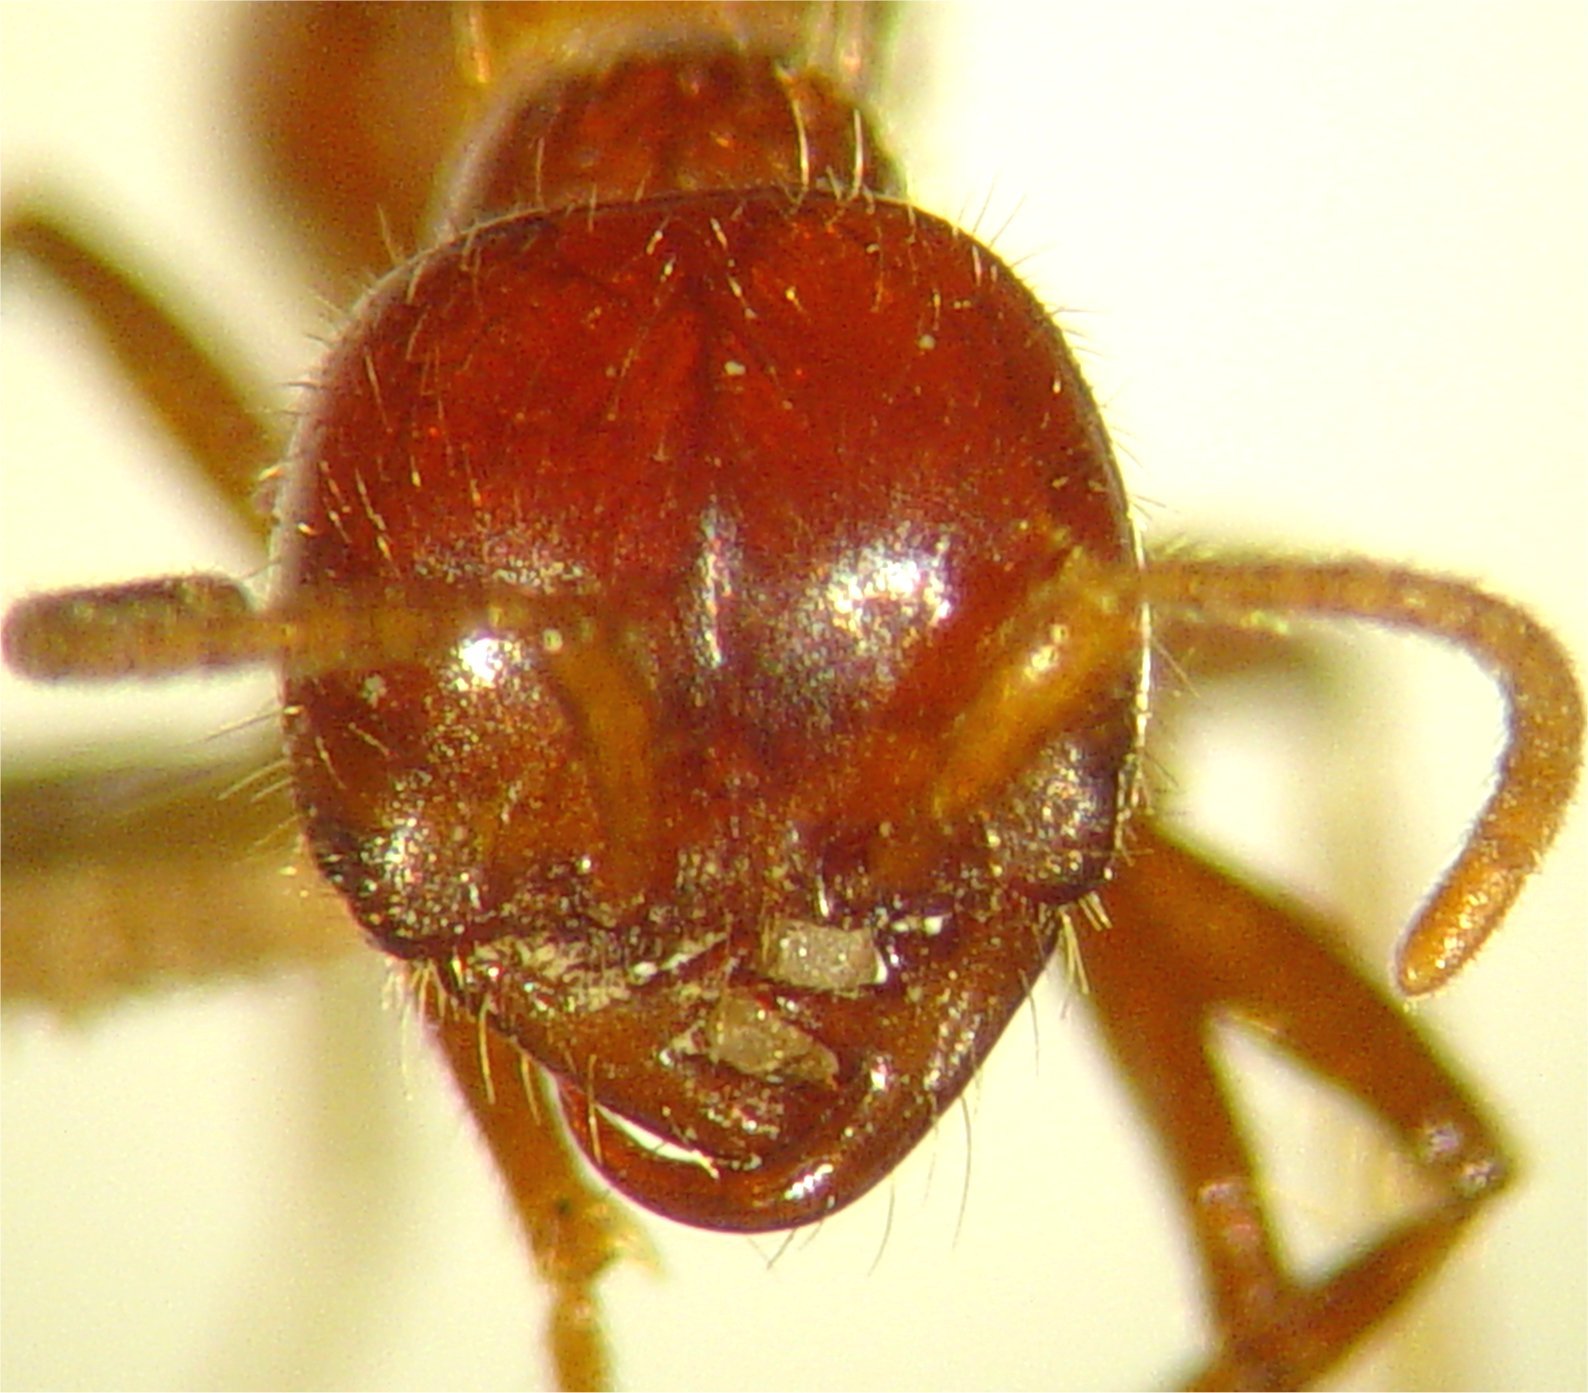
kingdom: Animalia
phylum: Arthropoda
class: Insecta
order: Hymenoptera
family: Formicidae
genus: Cheliomyrmex
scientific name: Cheliomyrmex megalonyx
